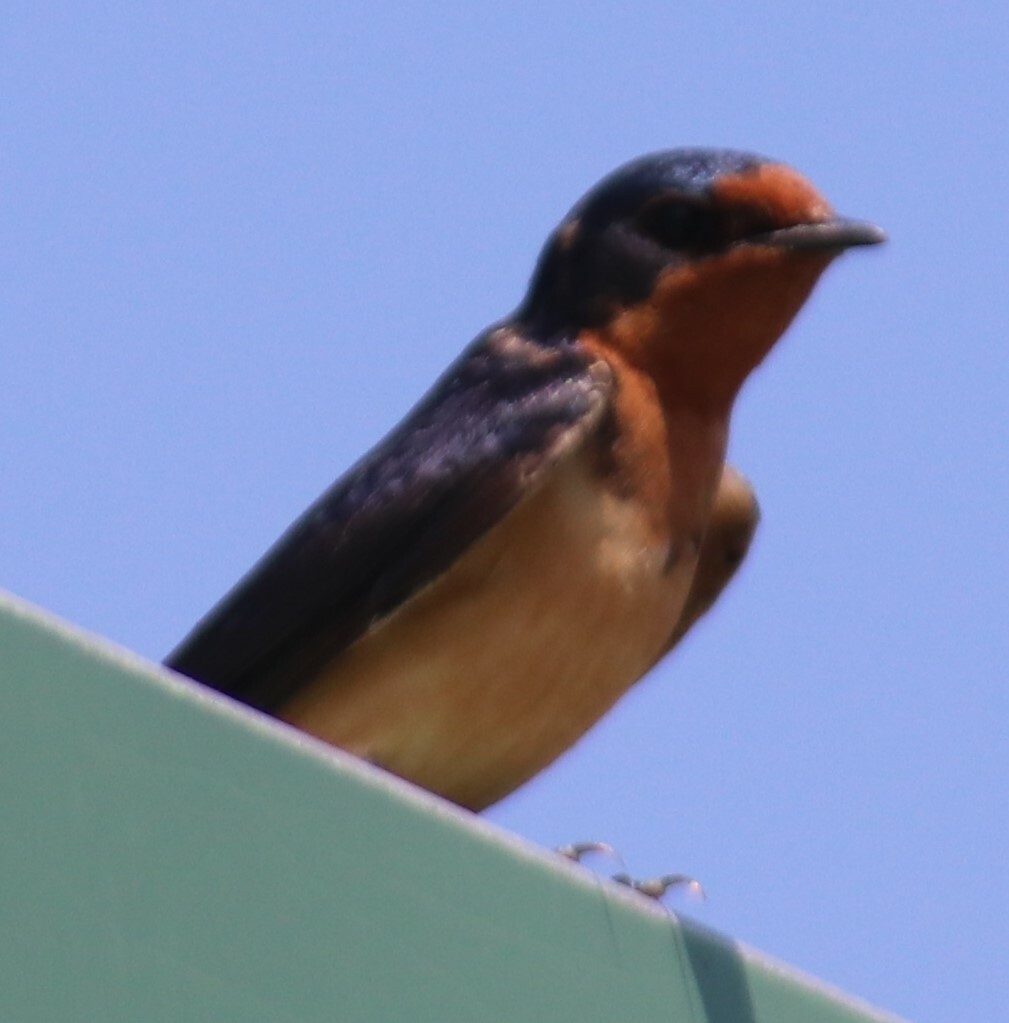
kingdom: Animalia
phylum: Chordata
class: Aves
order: Passeriformes
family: Hirundinidae
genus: Hirundo
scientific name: Hirundo rustica
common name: Barn swallow
